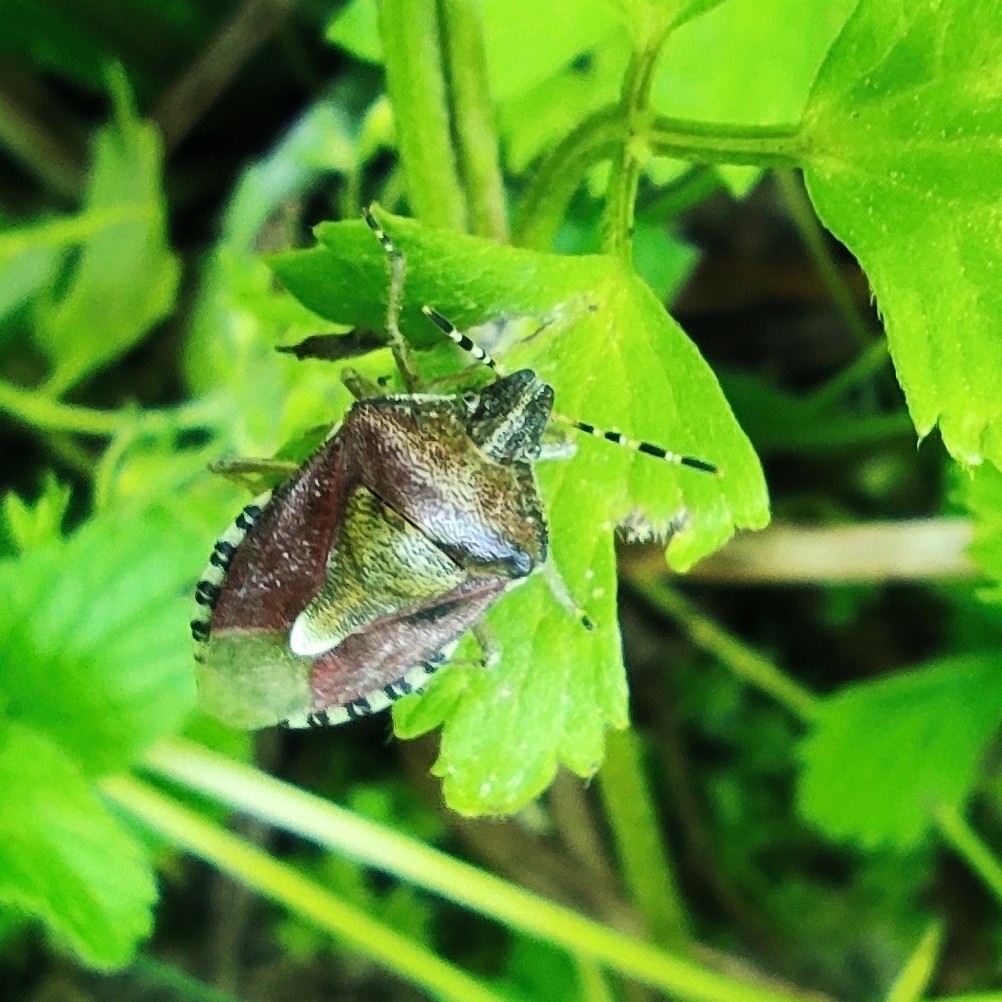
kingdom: Animalia
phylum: Arthropoda
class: Insecta
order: Hemiptera
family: Pentatomidae
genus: Dolycoris
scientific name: Dolycoris baccarum
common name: Sloe bug
